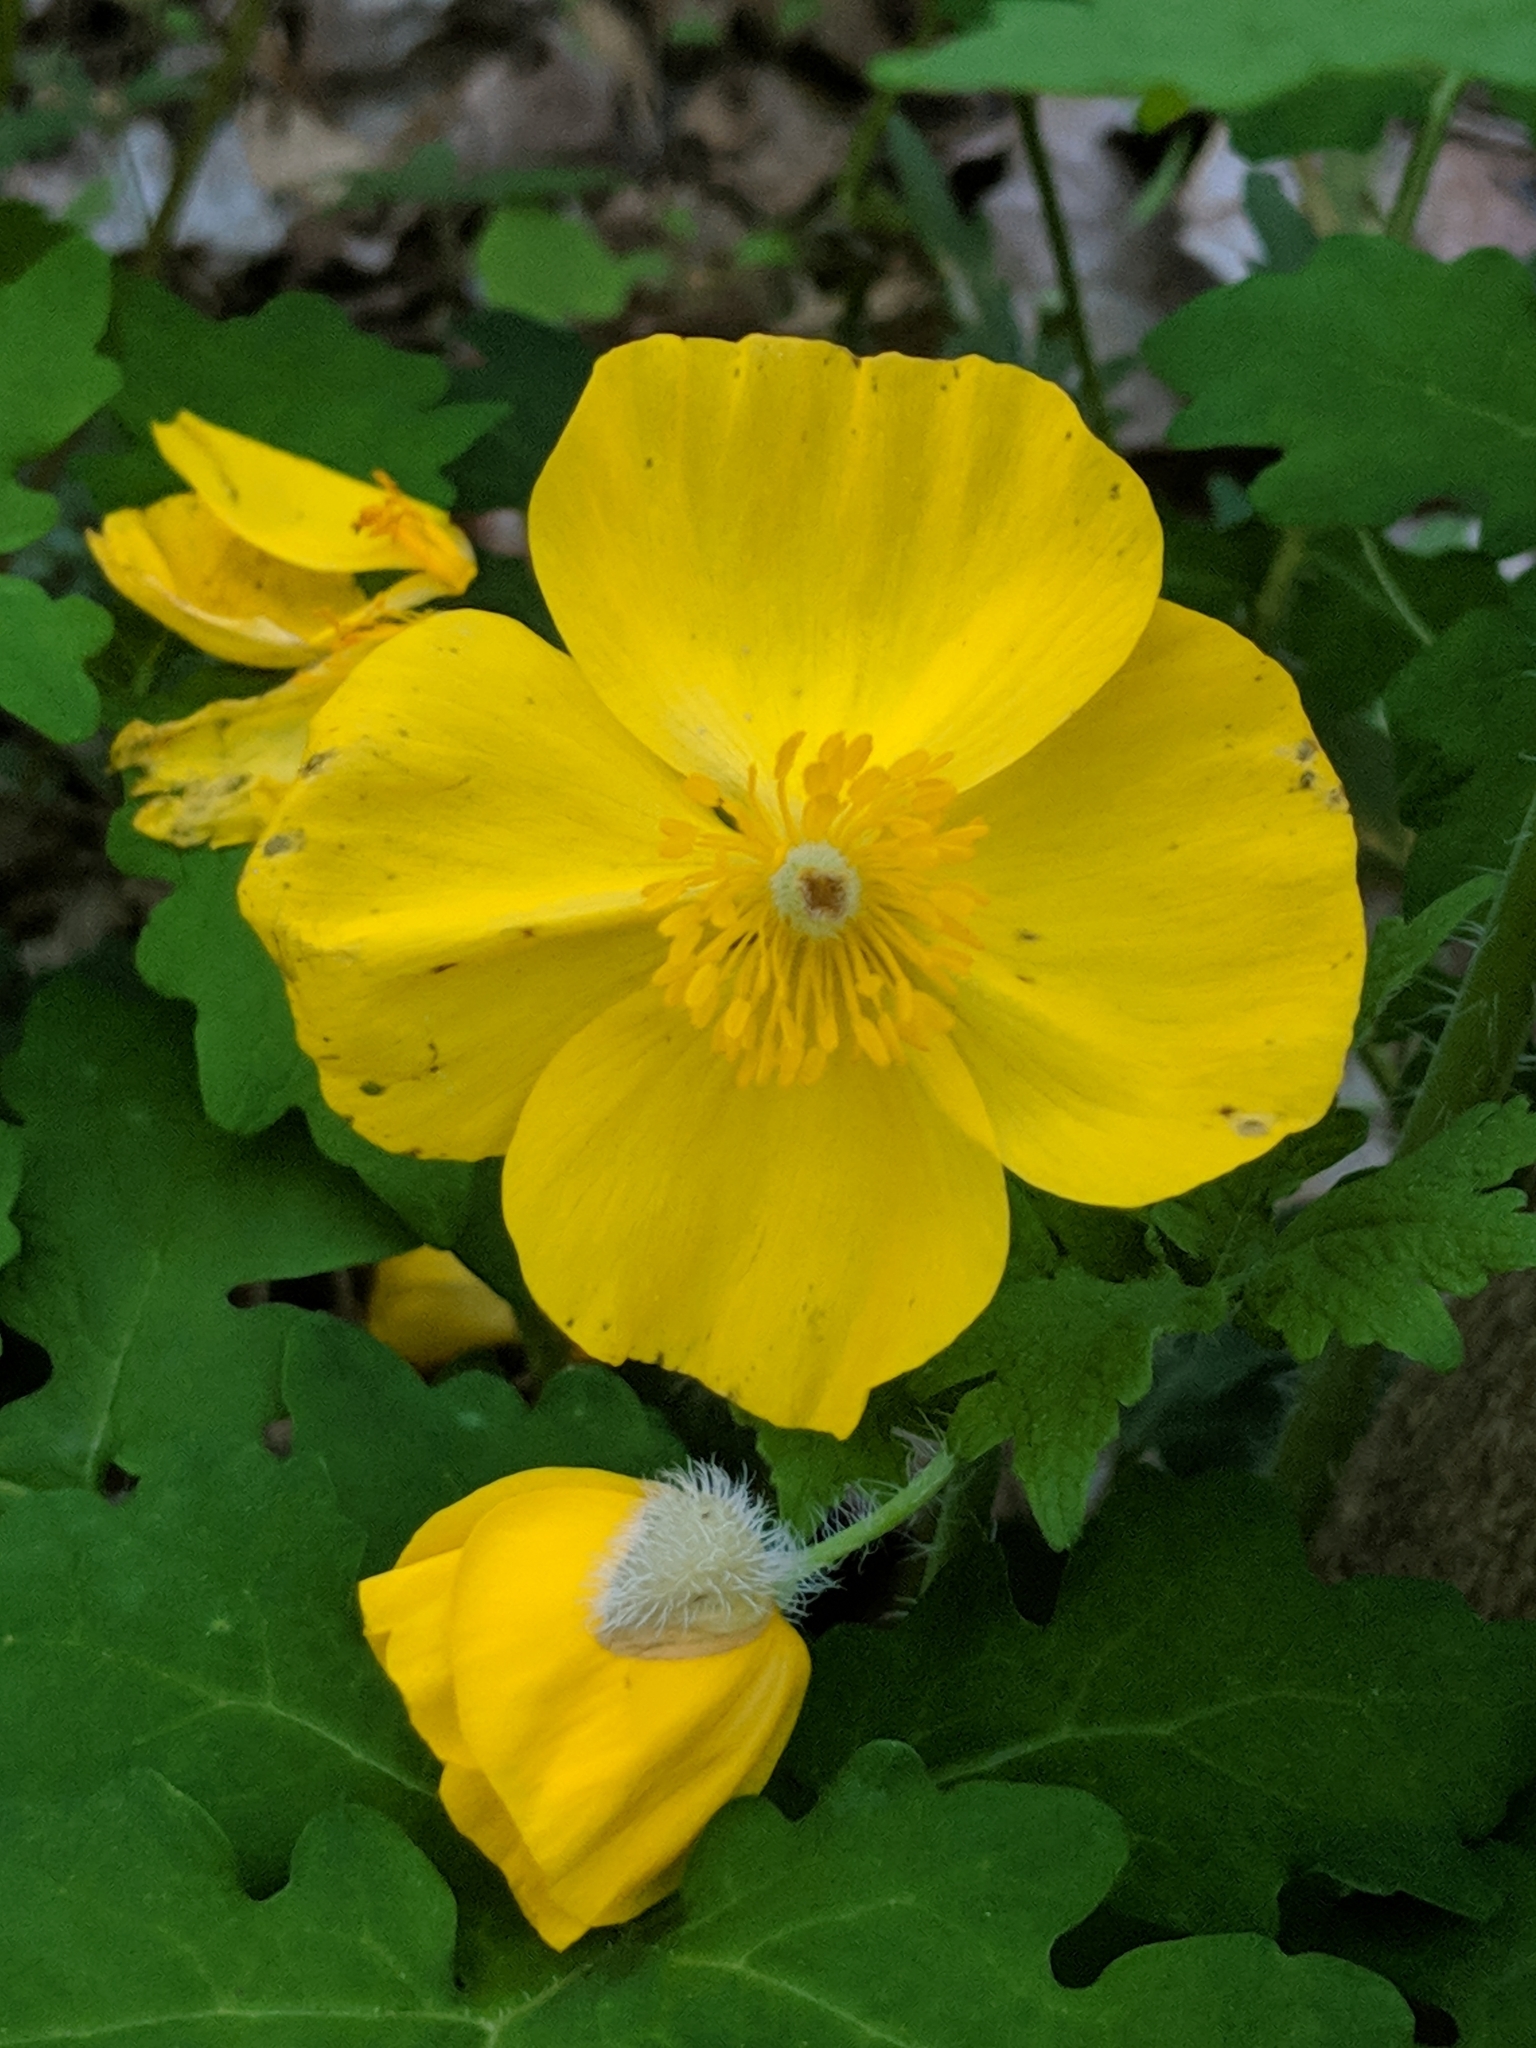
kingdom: Plantae
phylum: Tracheophyta
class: Magnoliopsida
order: Ranunculales
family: Papaveraceae
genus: Stylophorum
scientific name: Stylophorum diphyllum
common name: Celandine poppy
